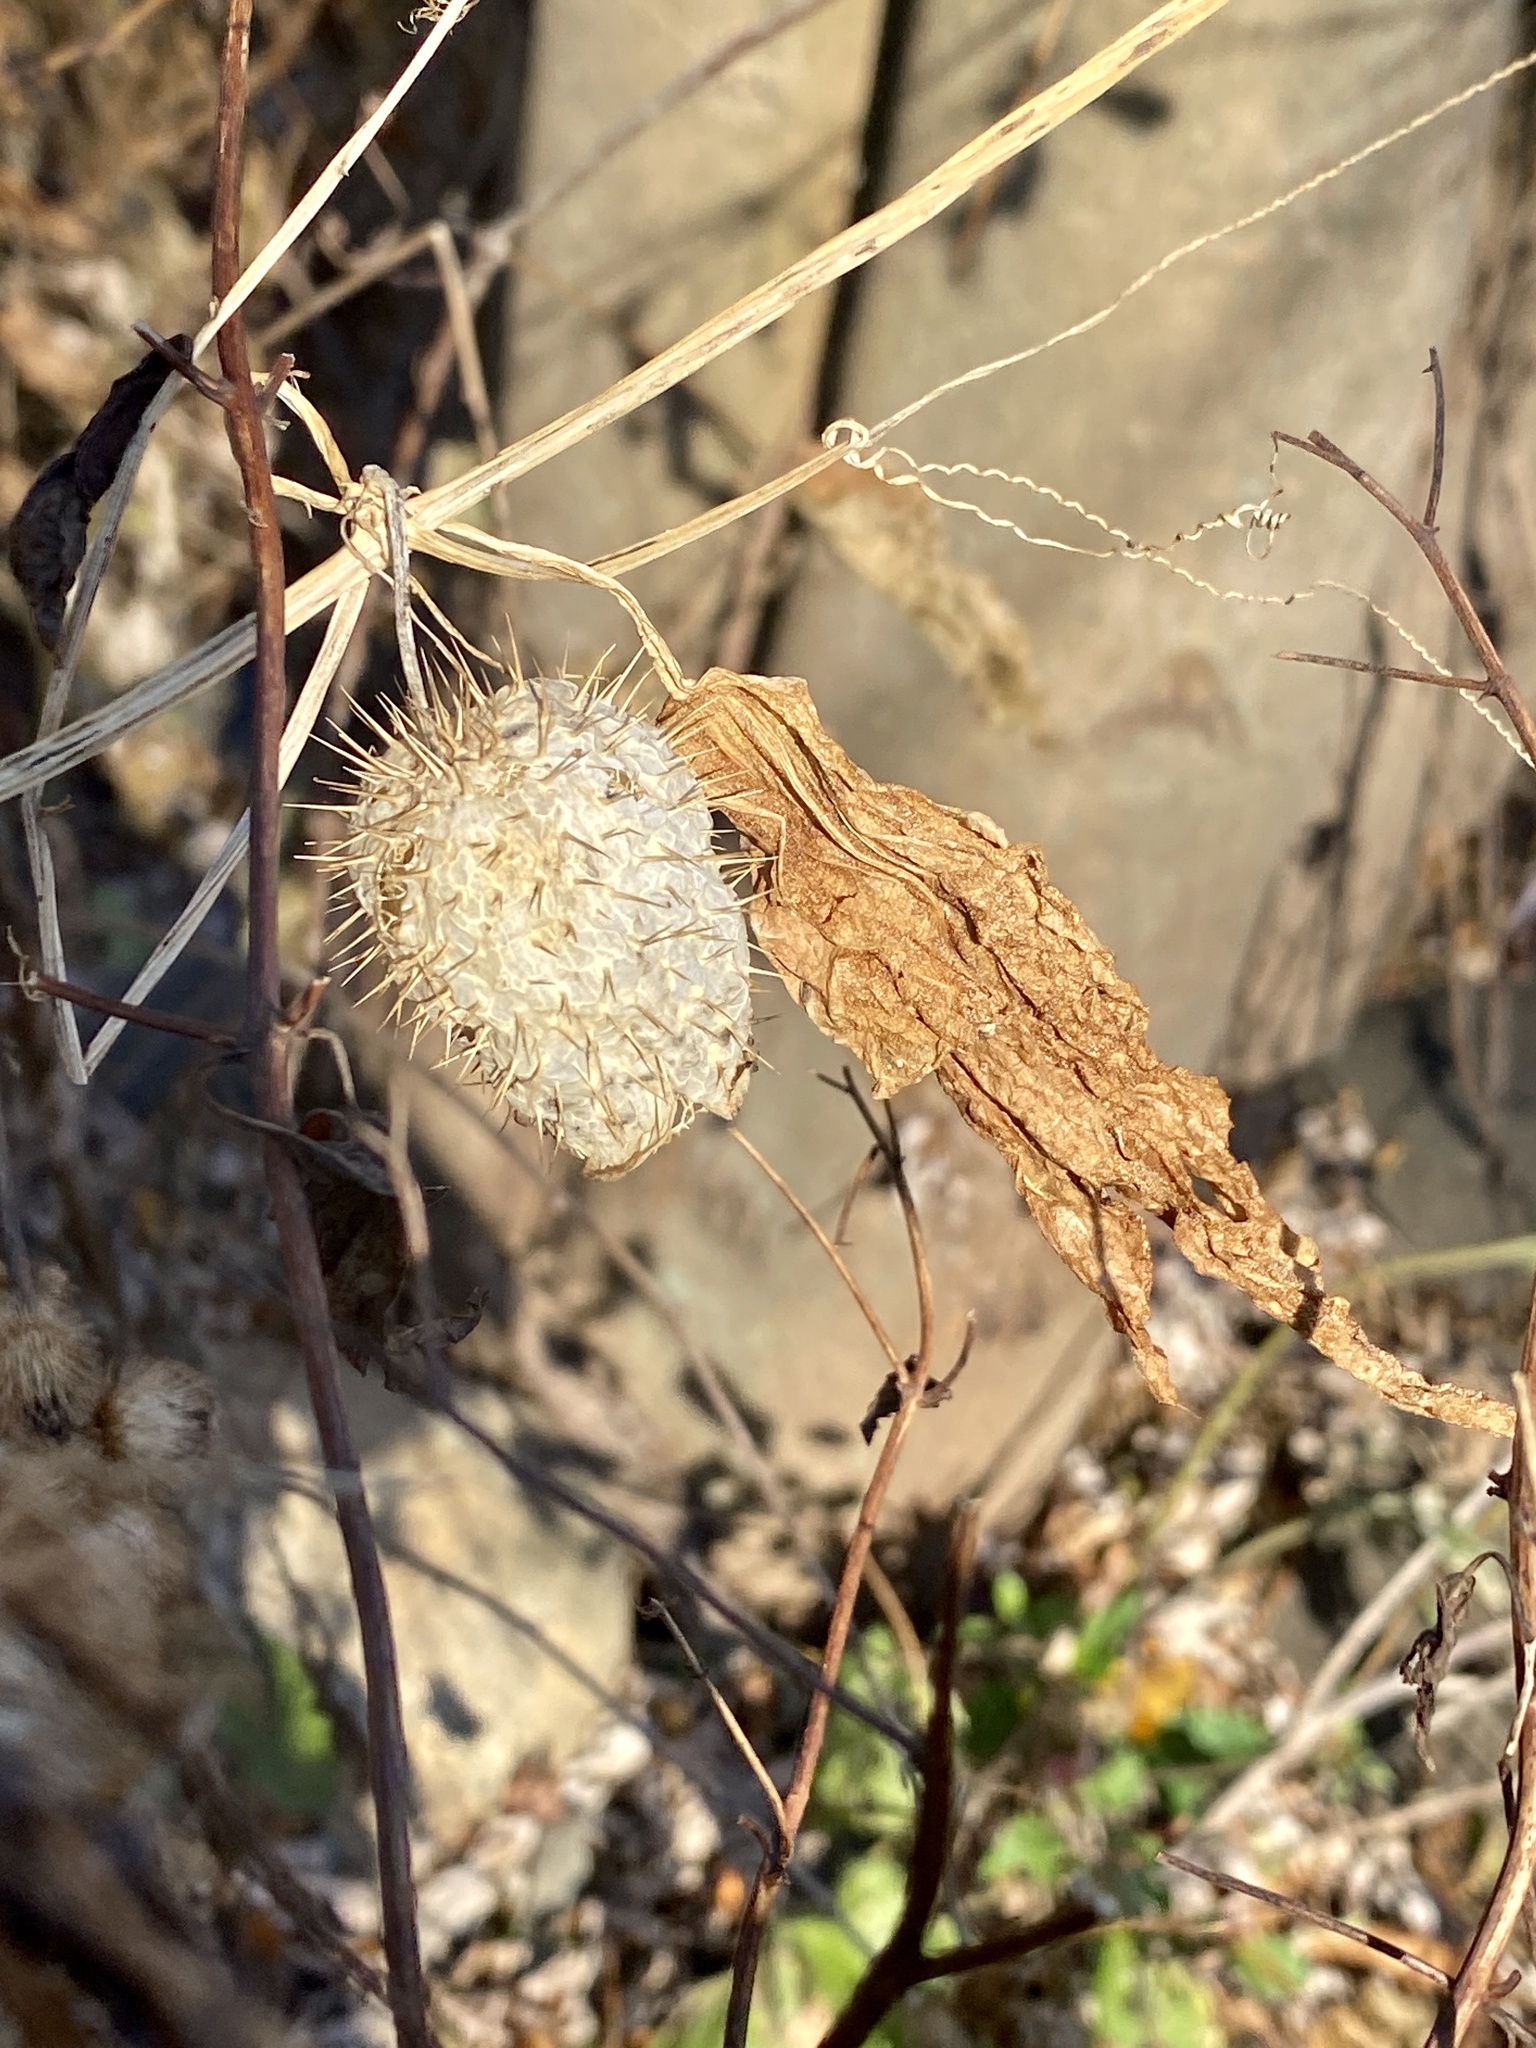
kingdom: Plantae
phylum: Tracheophyta
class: Magnoliopsida
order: Cucurbitales
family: Cucurbitaceae
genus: Echinocystis
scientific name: Echinocystis lobata
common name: Wild cucumber
